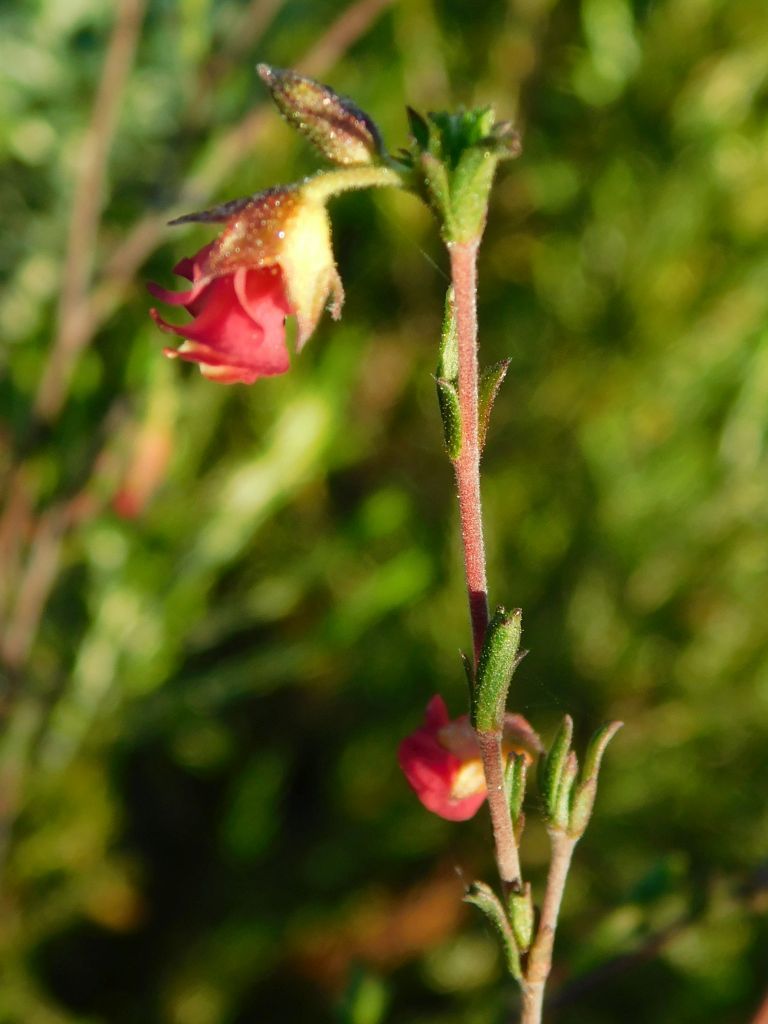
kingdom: Plantae
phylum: Tracheophyta
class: Magnoliopsida
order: Malvales
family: Malvaceae
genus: Hermannia
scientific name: Hermannia flammula
